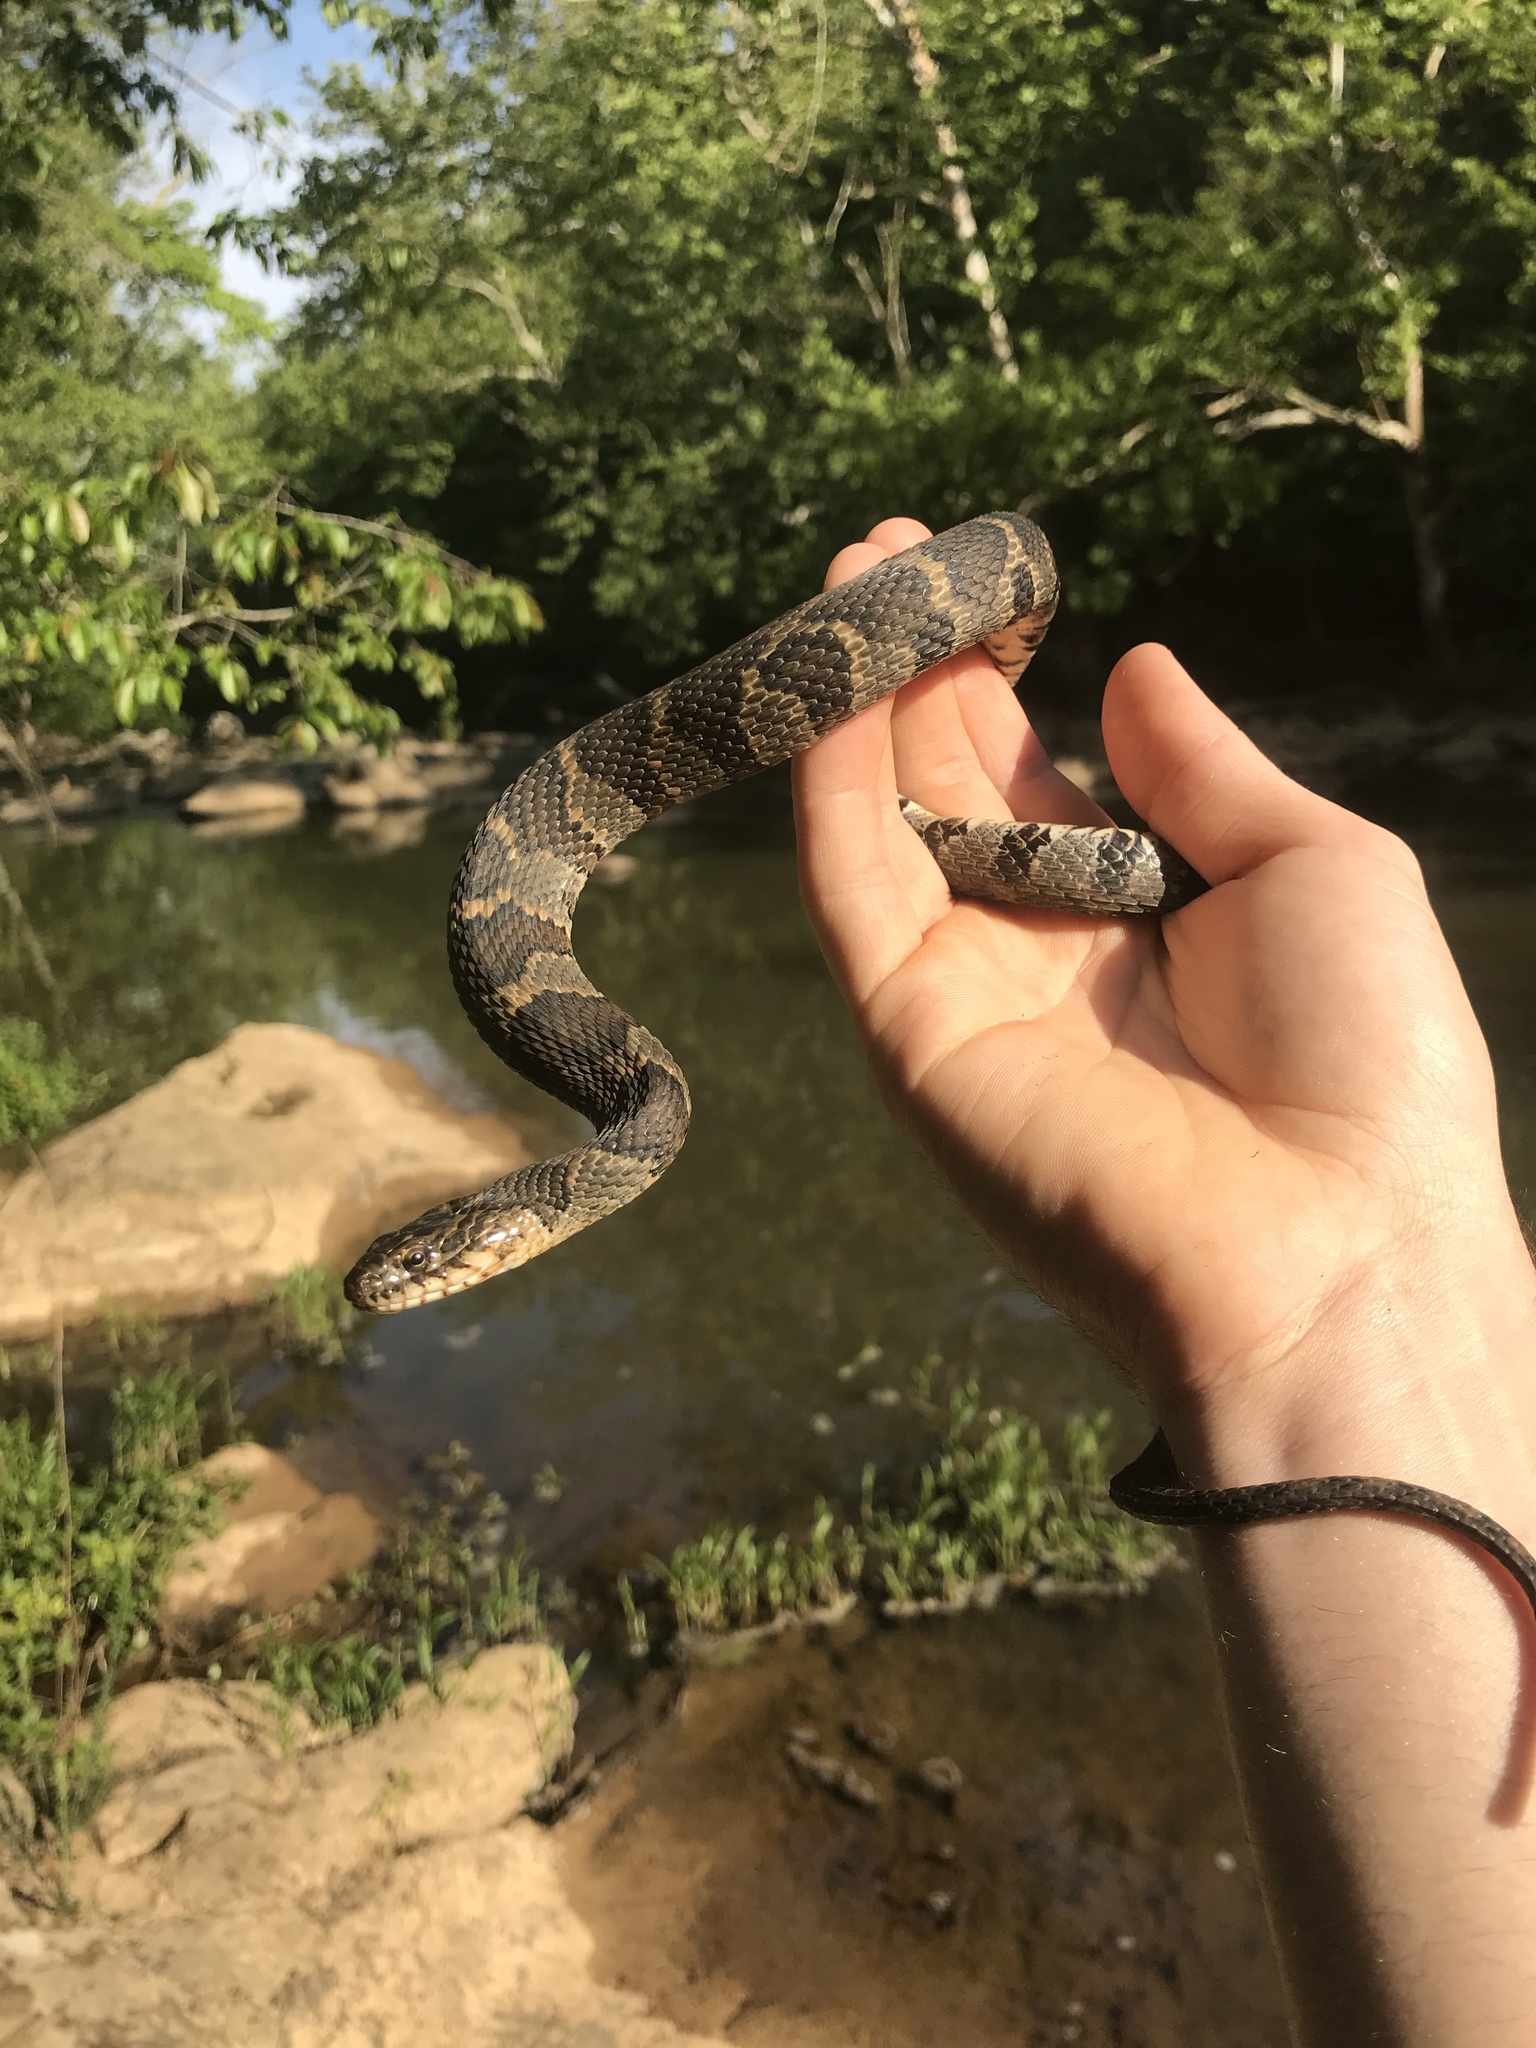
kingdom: Animalia
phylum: Chordata
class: Squamata
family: Colubridae
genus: Nerodia
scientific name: Nerodia sipedon
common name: Northern water snake
